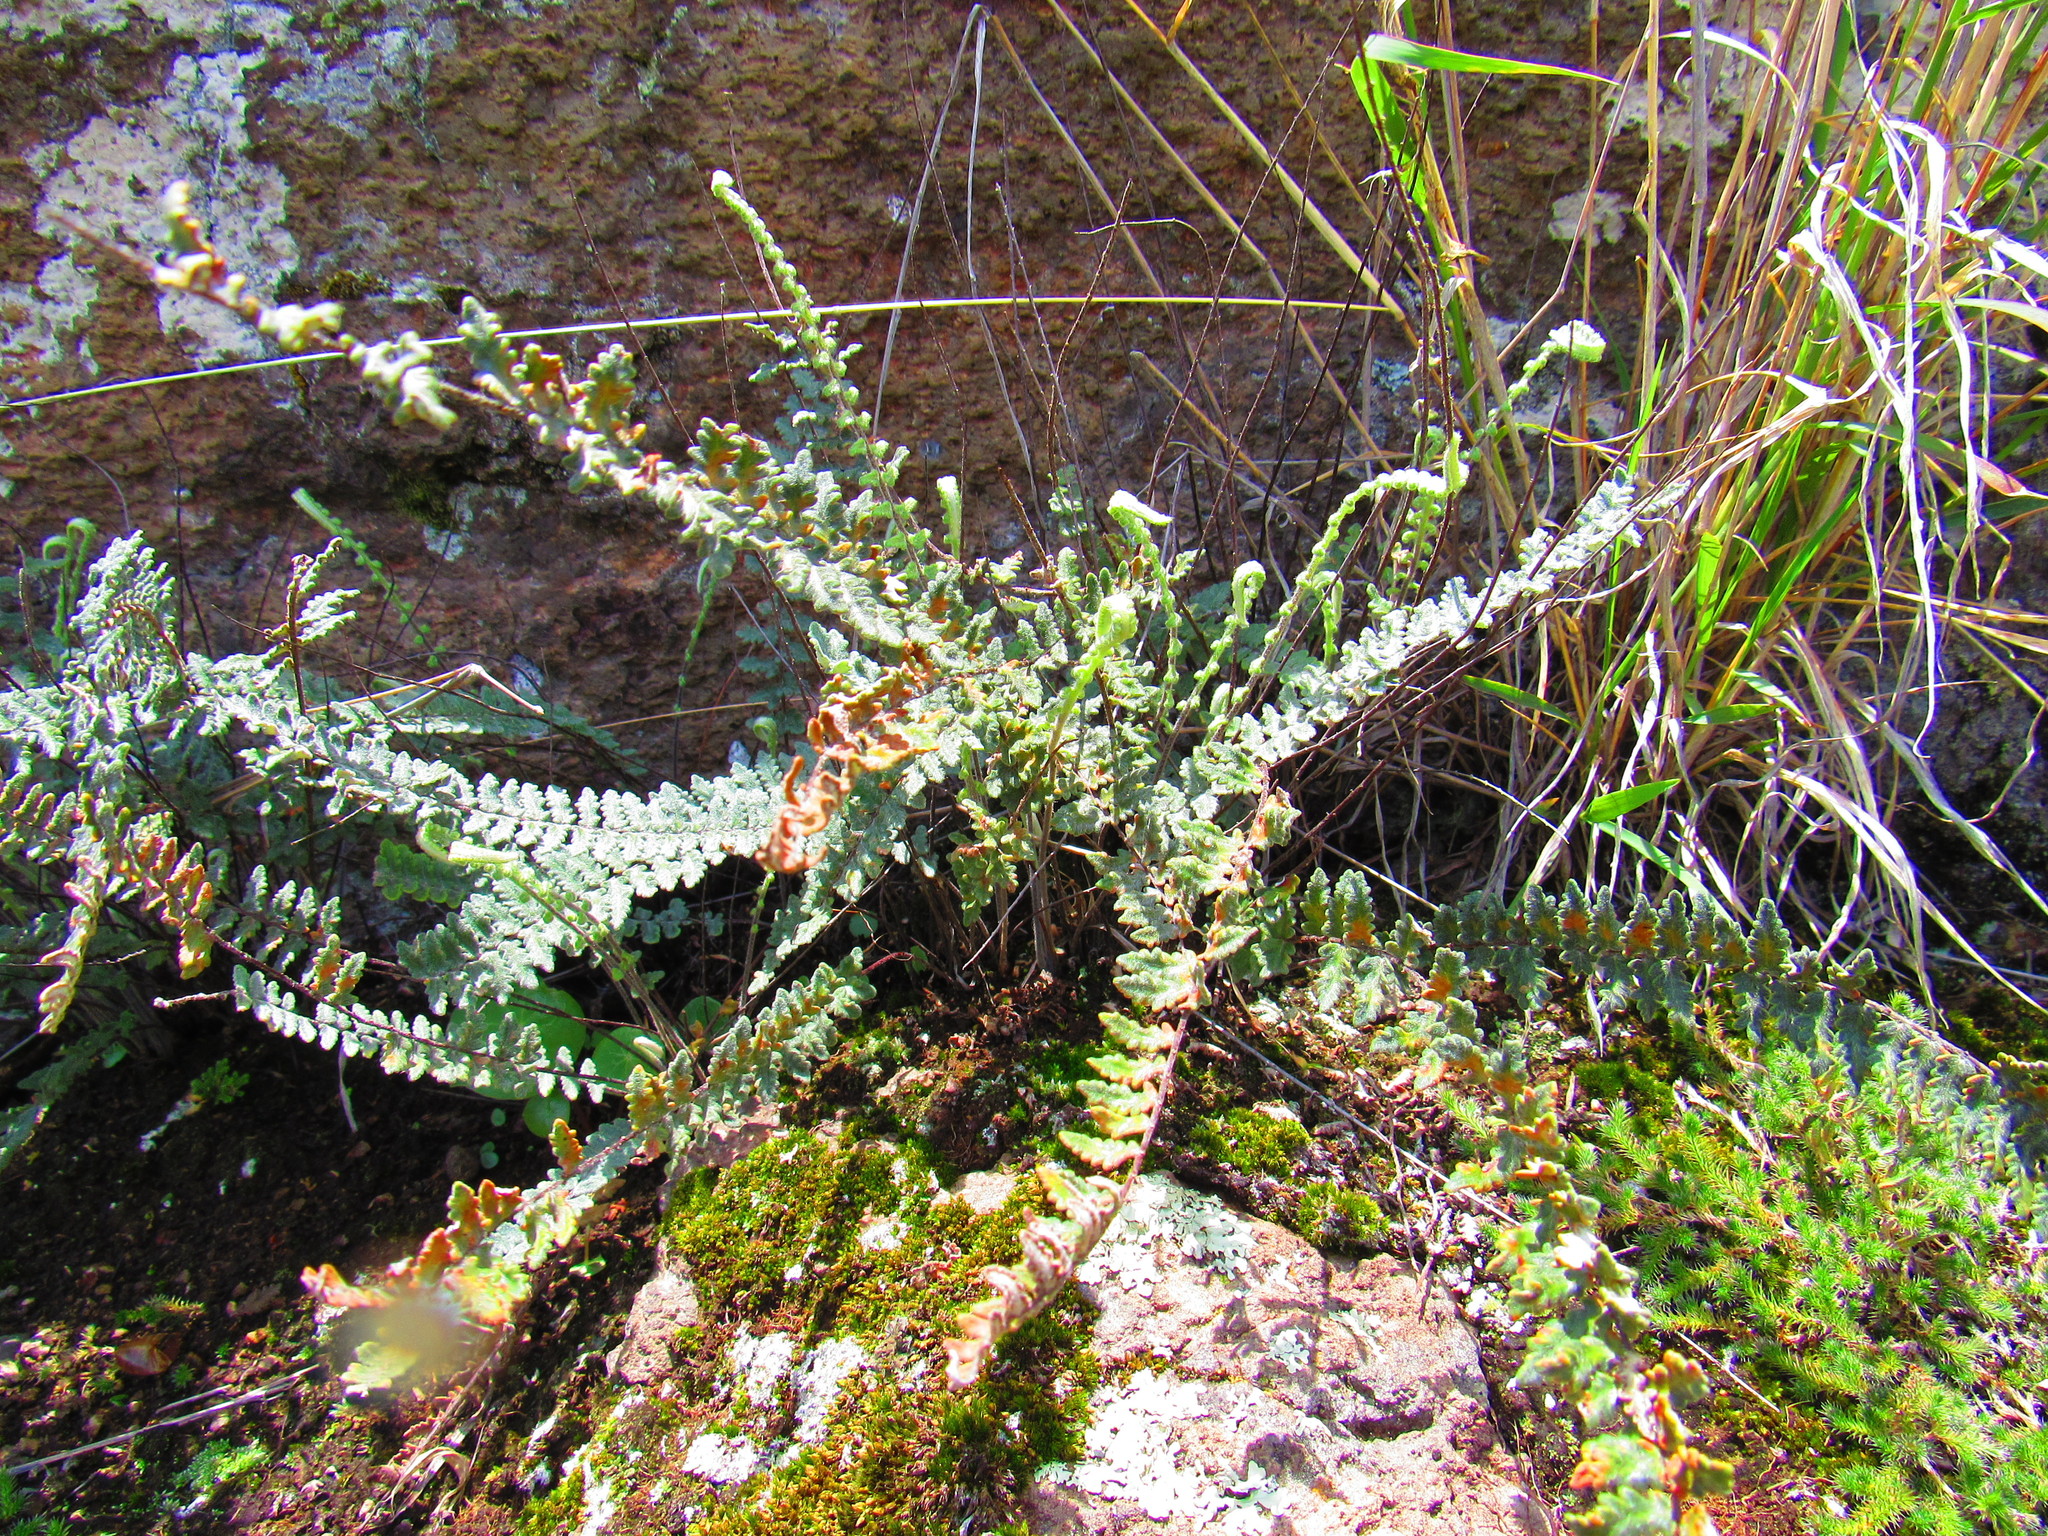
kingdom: Plantae
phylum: Tracheophyta
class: Polypodiopsida
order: Polypodiales
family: Pteridaceae
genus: Myriopteris
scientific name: Myriopteris aurea
